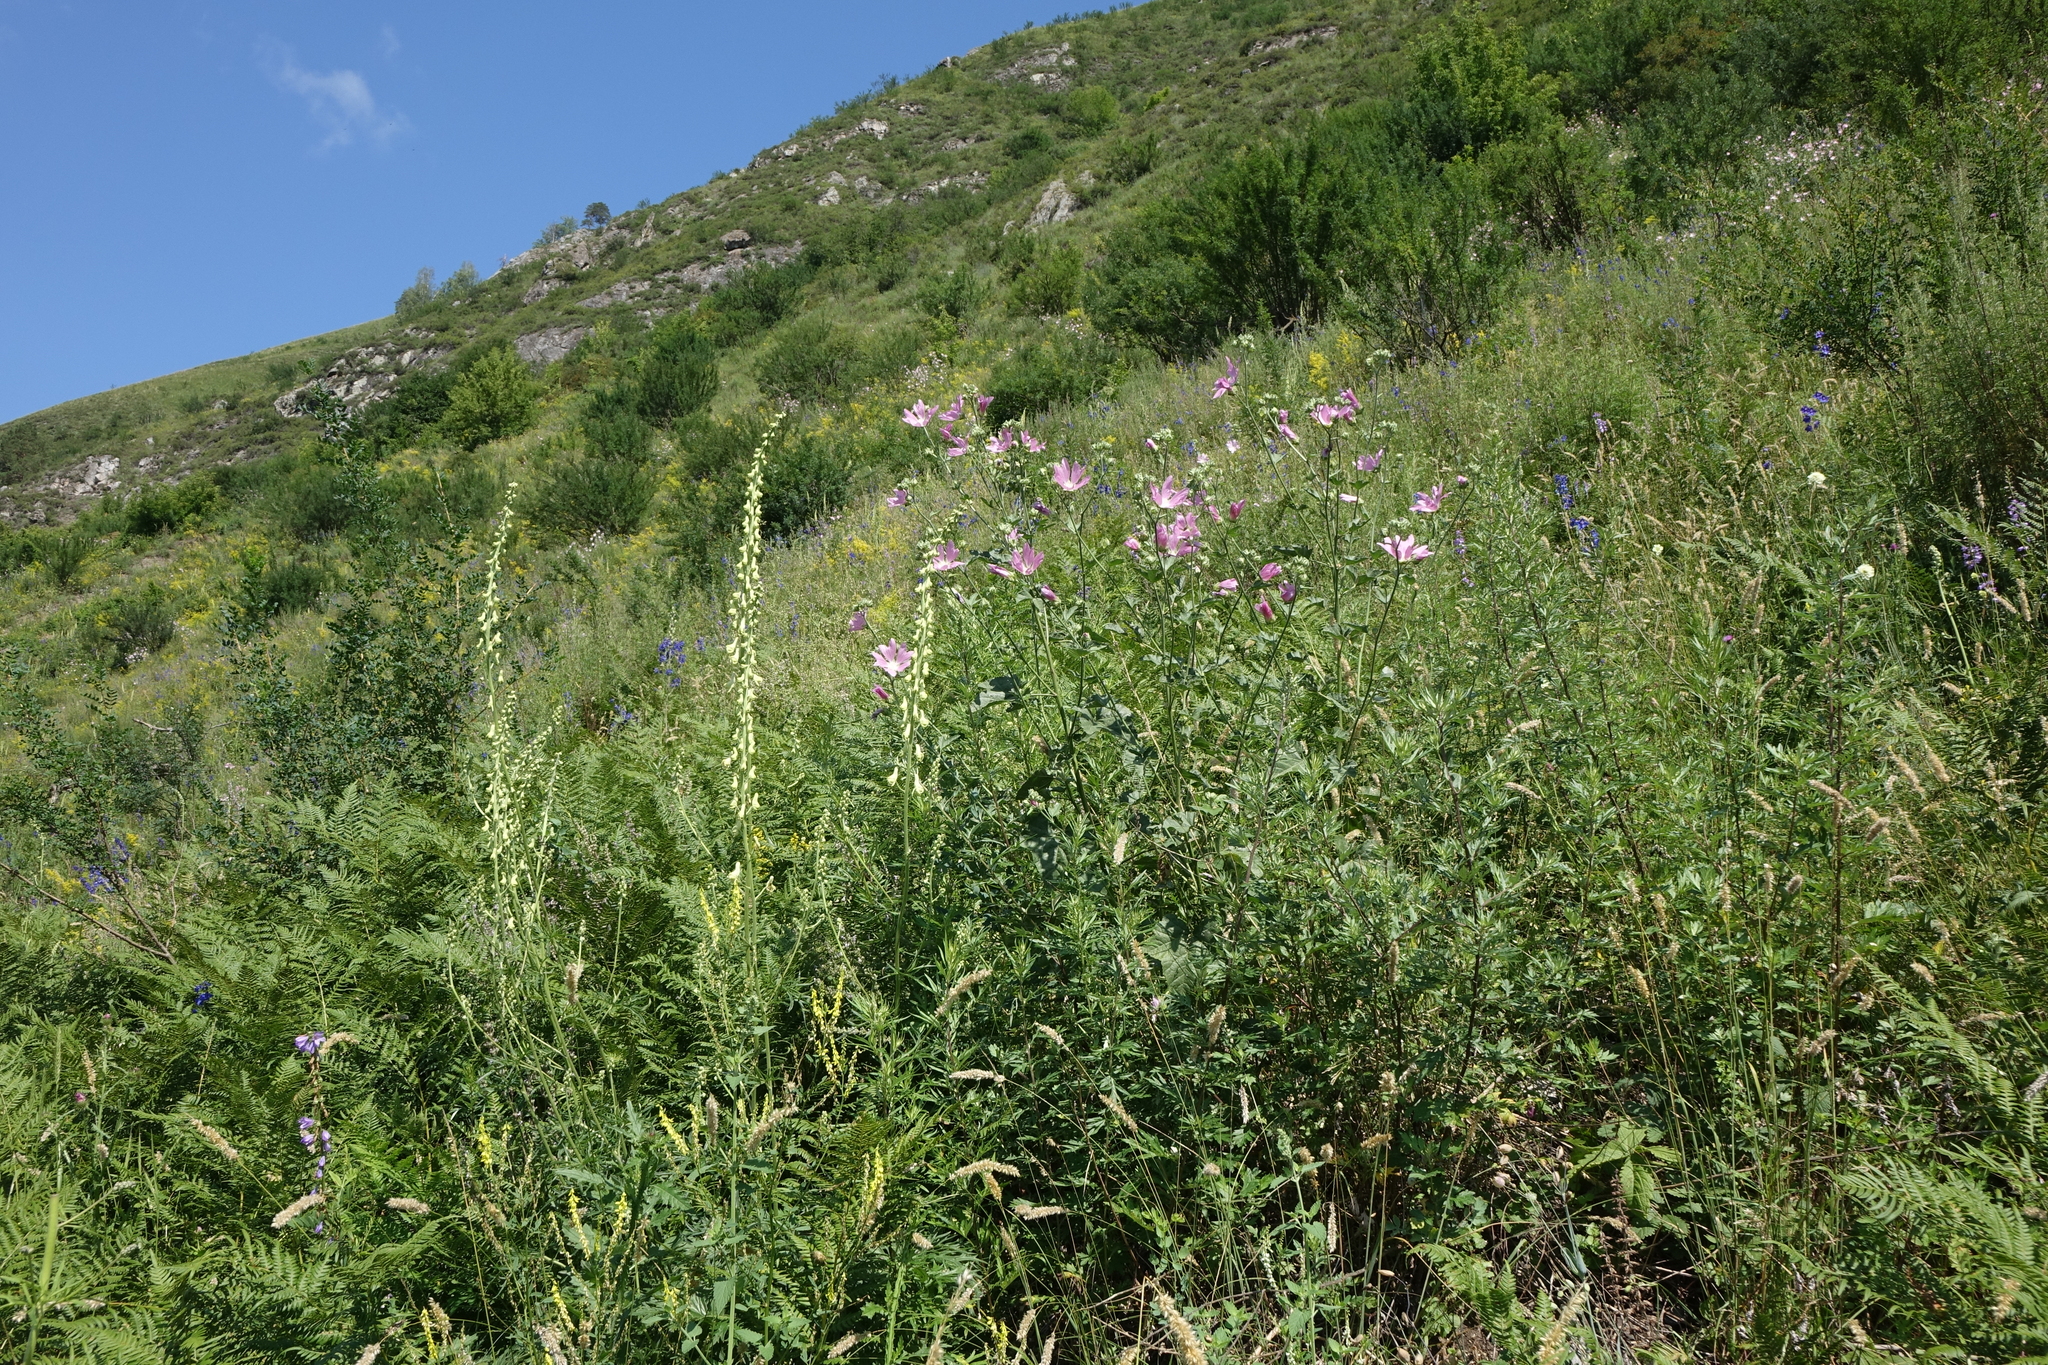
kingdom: Plantae
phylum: Tracheophyta
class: Magnoliopsida
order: Ranunculales
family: Ranunculaceae
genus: Aconitum
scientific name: Aconitum barbatum
